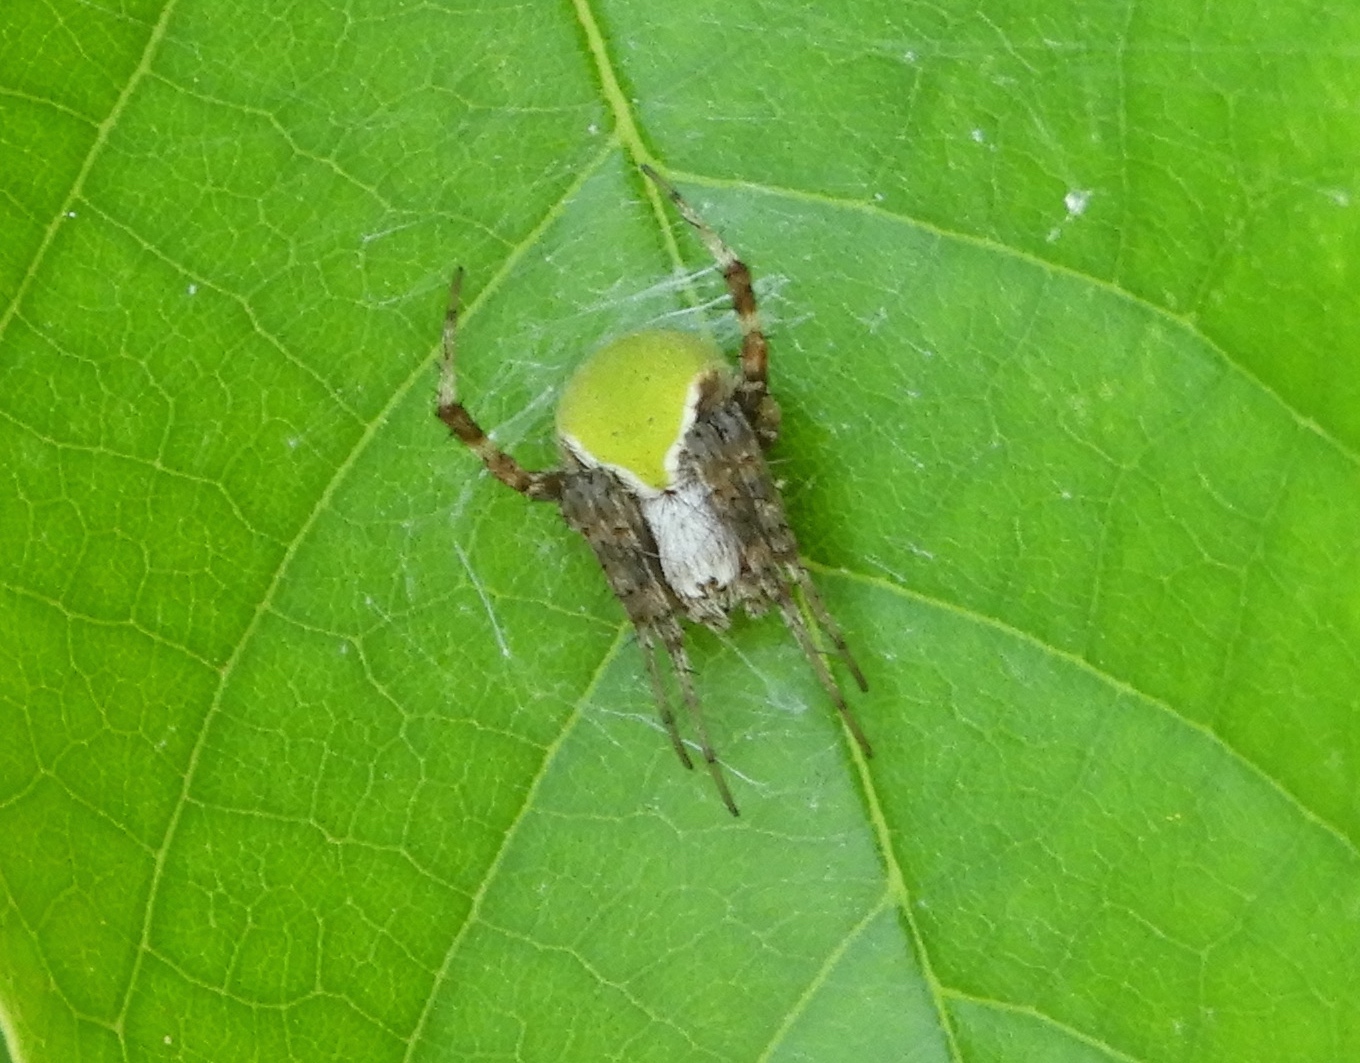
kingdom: Animalia
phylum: Arthropoda
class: Arachnida
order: Araneae
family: Araneidae
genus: Araneus
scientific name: Araneus detrimentosus
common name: Orb weavers
